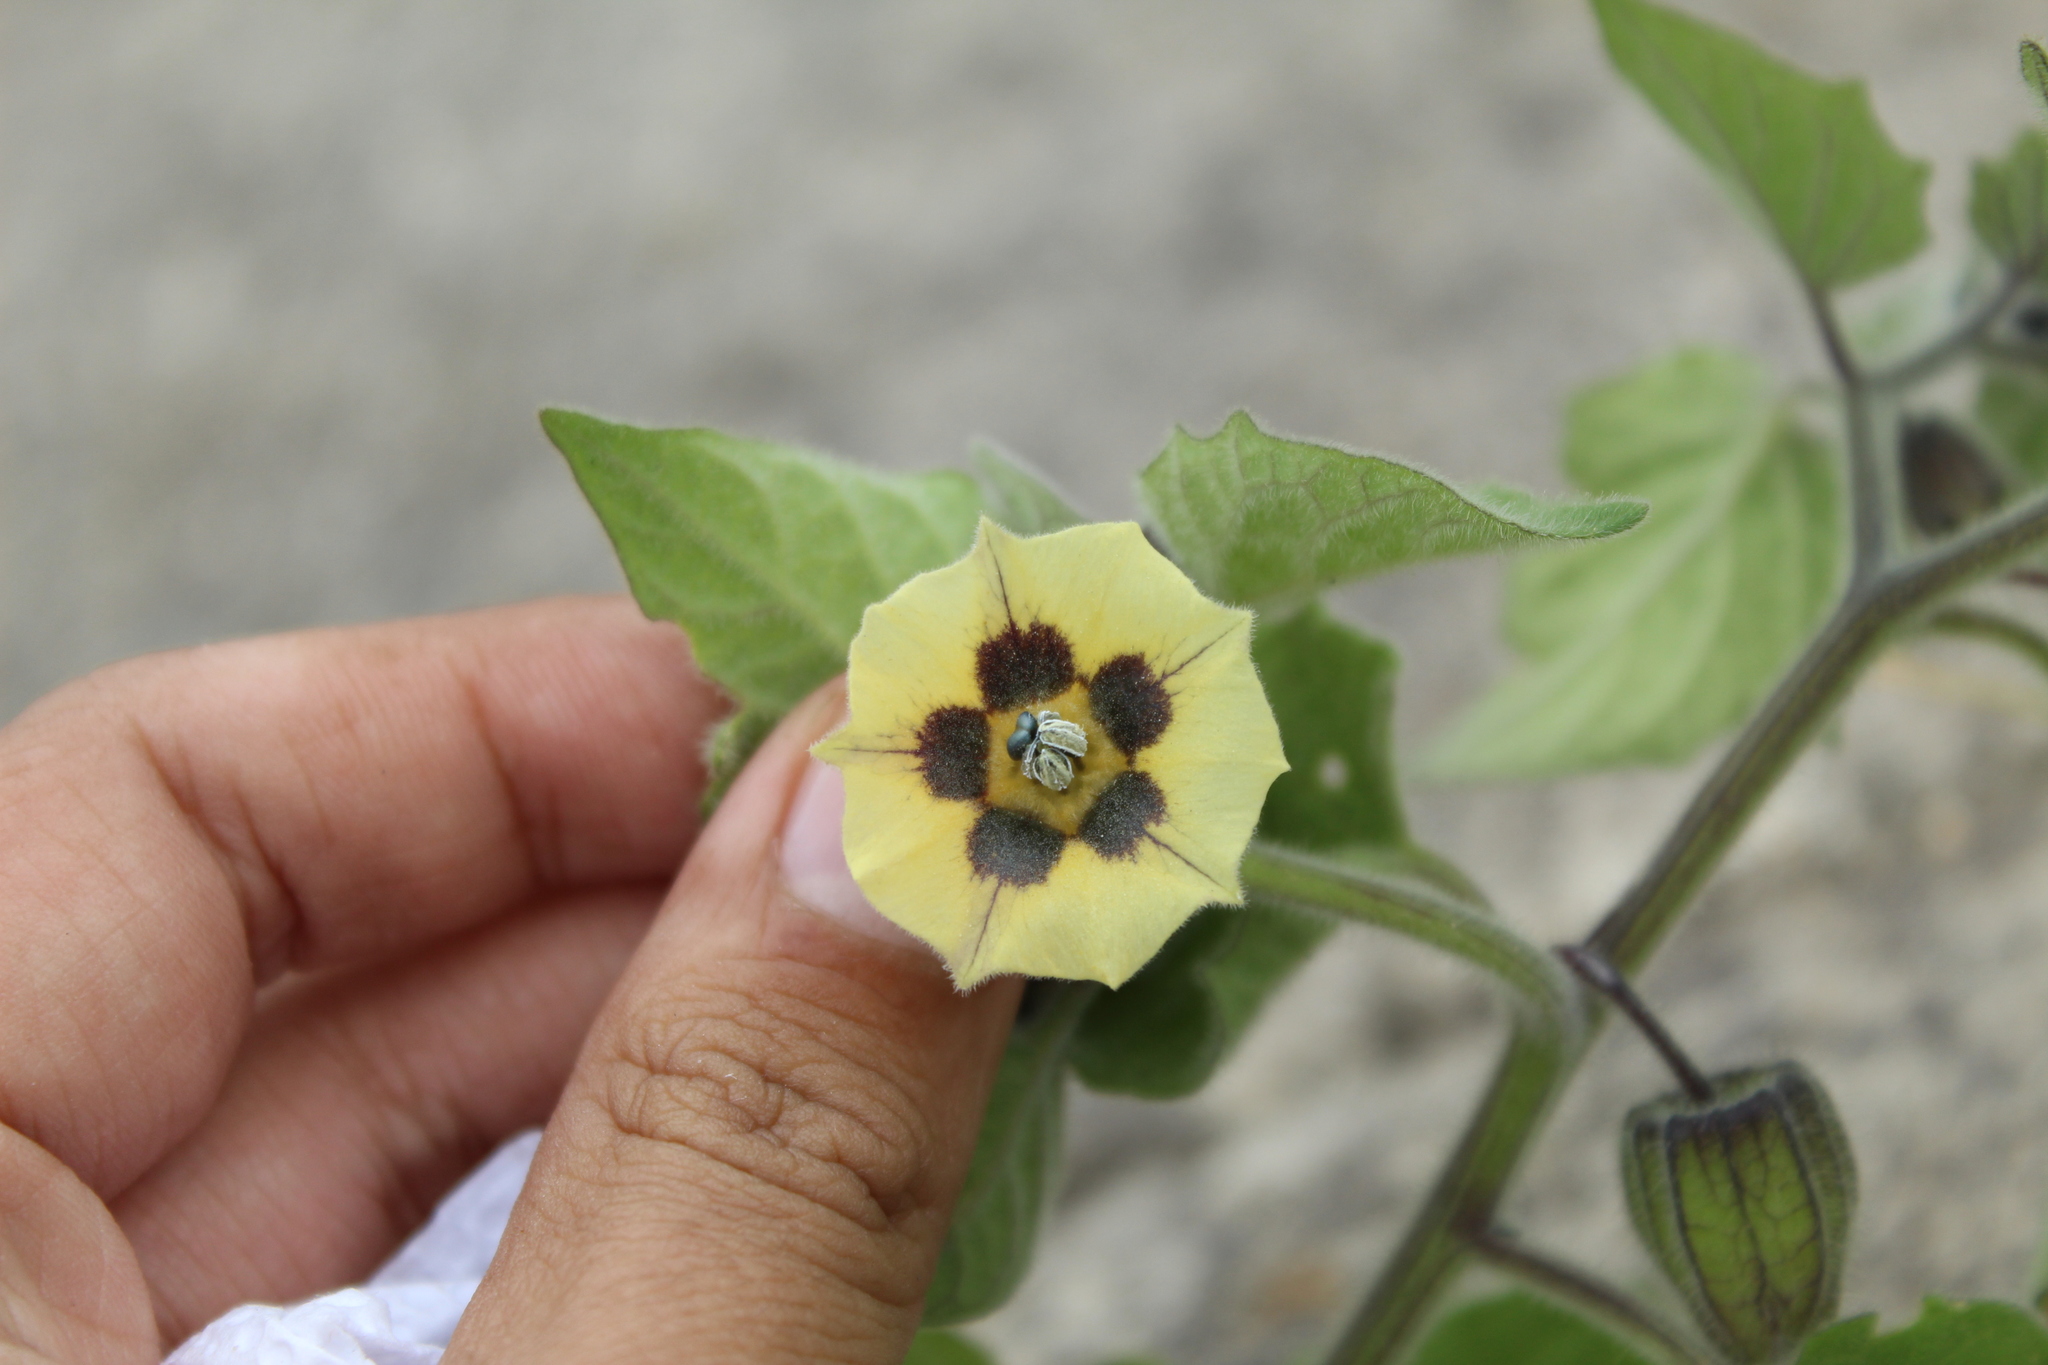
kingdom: Plantae
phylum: Tracheophyta
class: Magnoliopsida
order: Solanales
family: Solanaceae
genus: Physalis
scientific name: Physalis peruviana
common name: Cape-gooseberry
